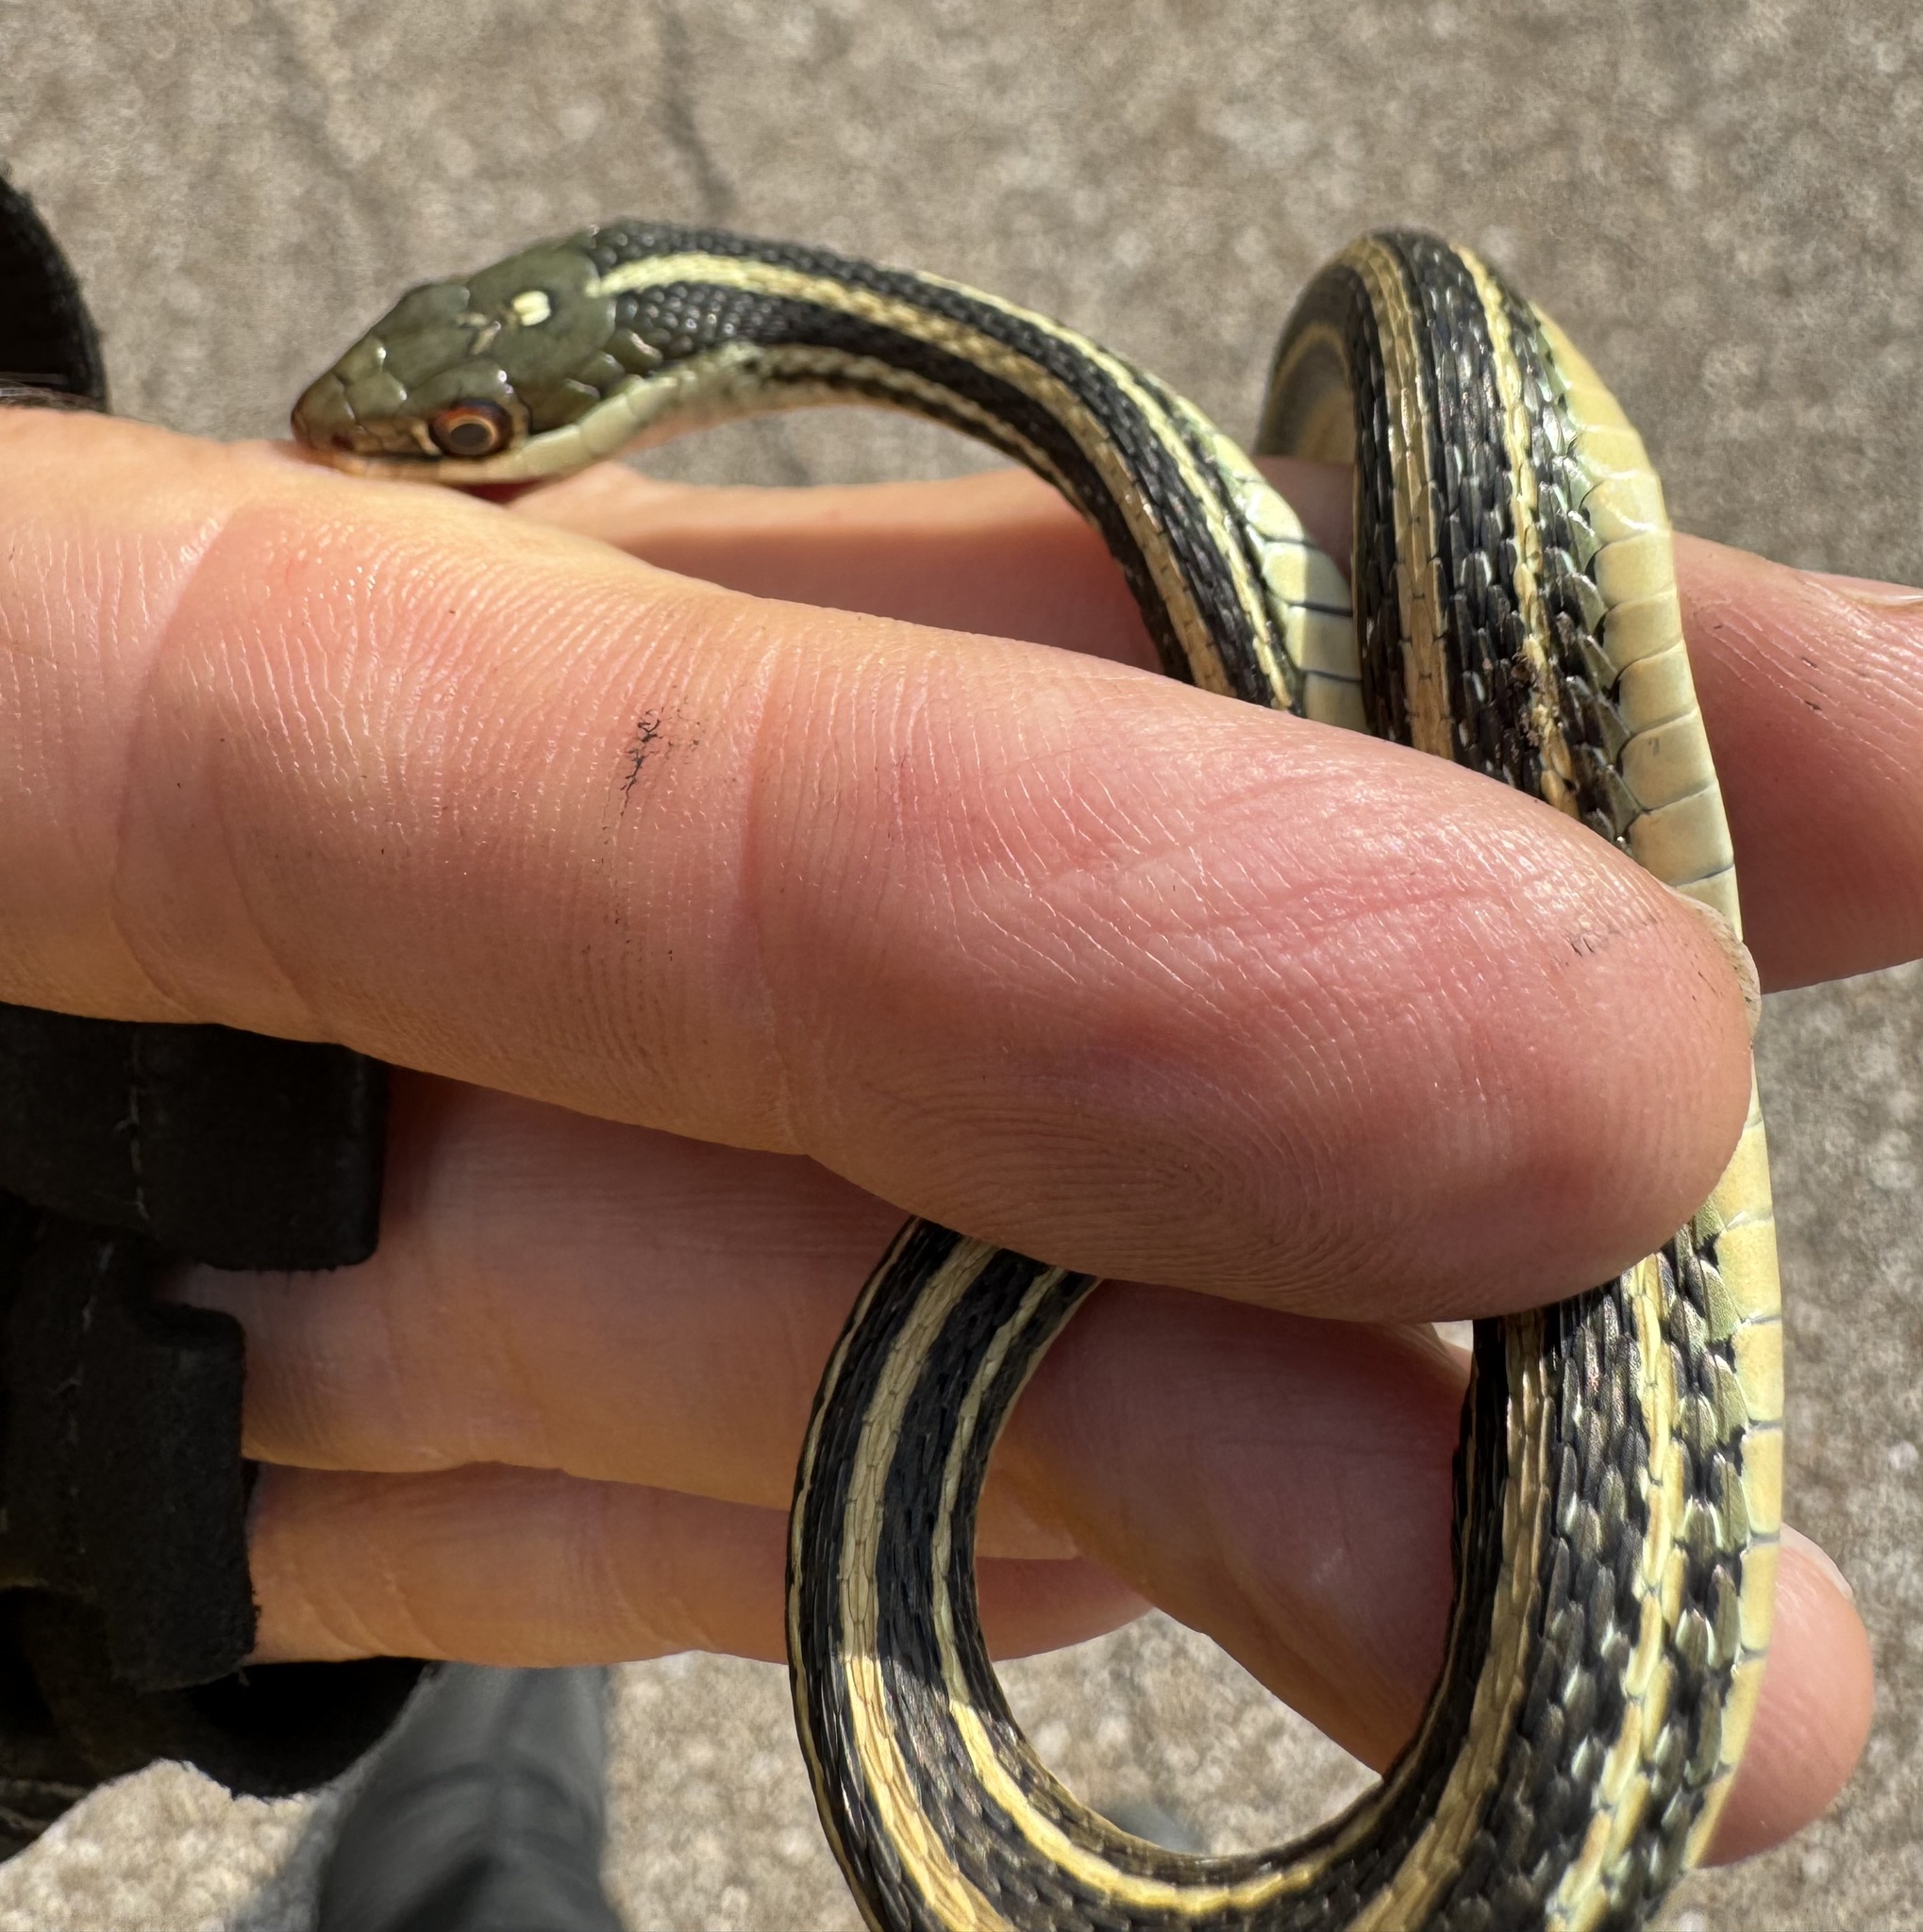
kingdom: Animalia
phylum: Chordata
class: Squamata
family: Colubridae
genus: Thamnophis
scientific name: Thamnophis proximus
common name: Western ribbon snake
